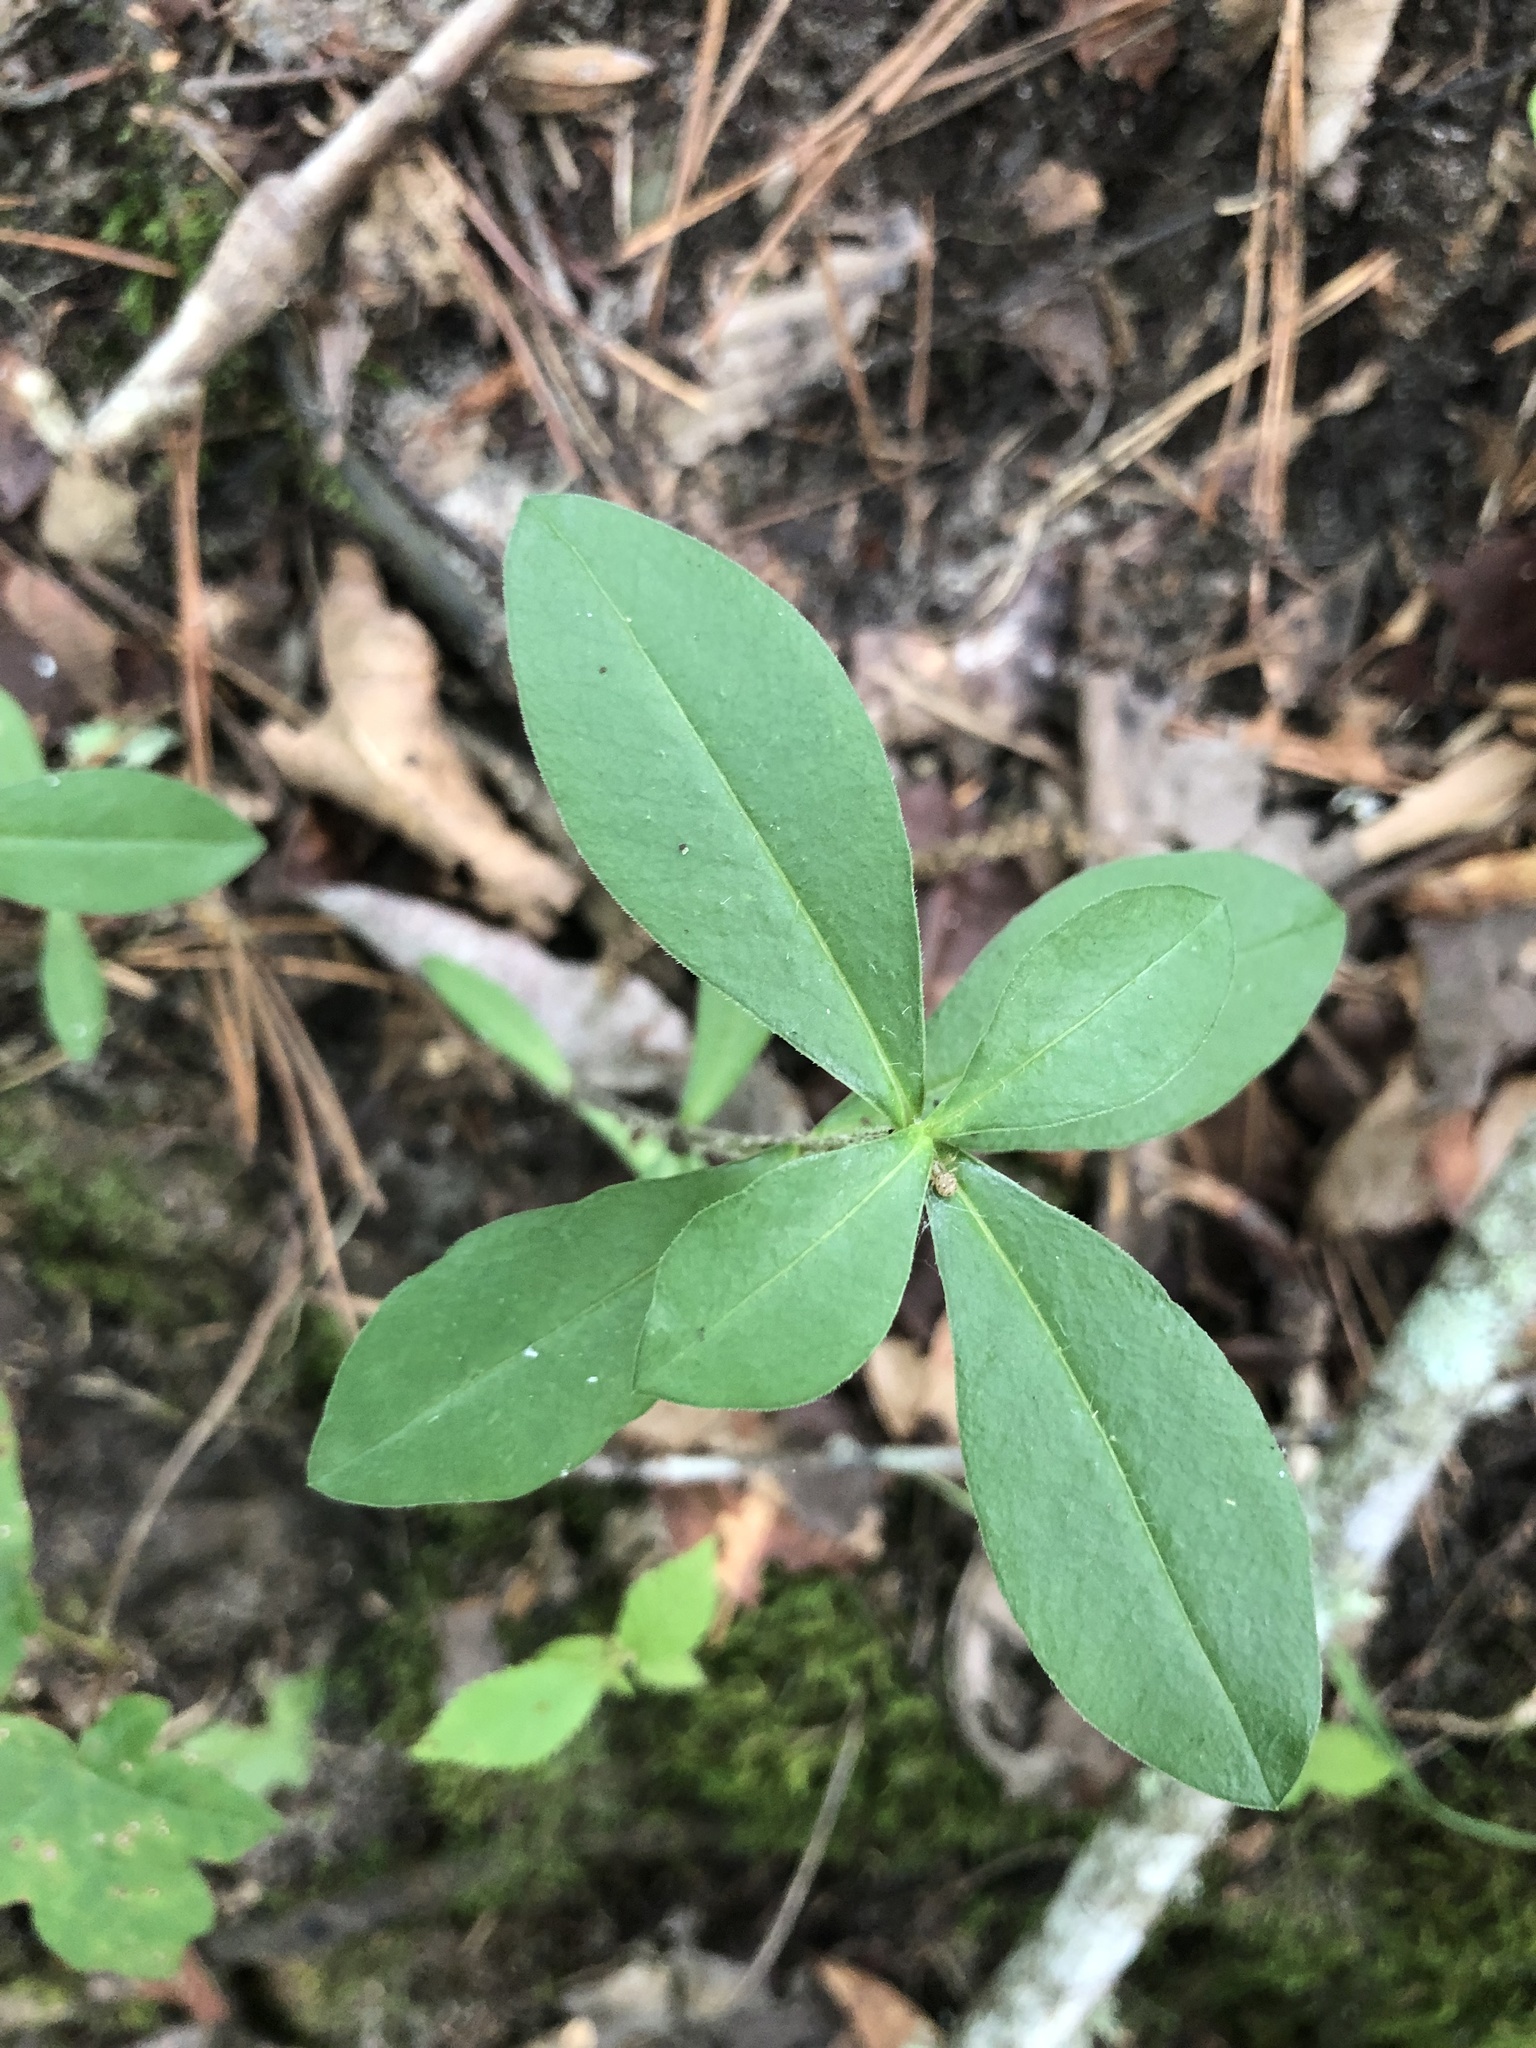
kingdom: Plantae
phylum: Tracheophyta
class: Magnoliopsida
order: Ericales
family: Polemoniaceae
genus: Phlox
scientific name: Phlox divaricata
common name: Blue phlox
